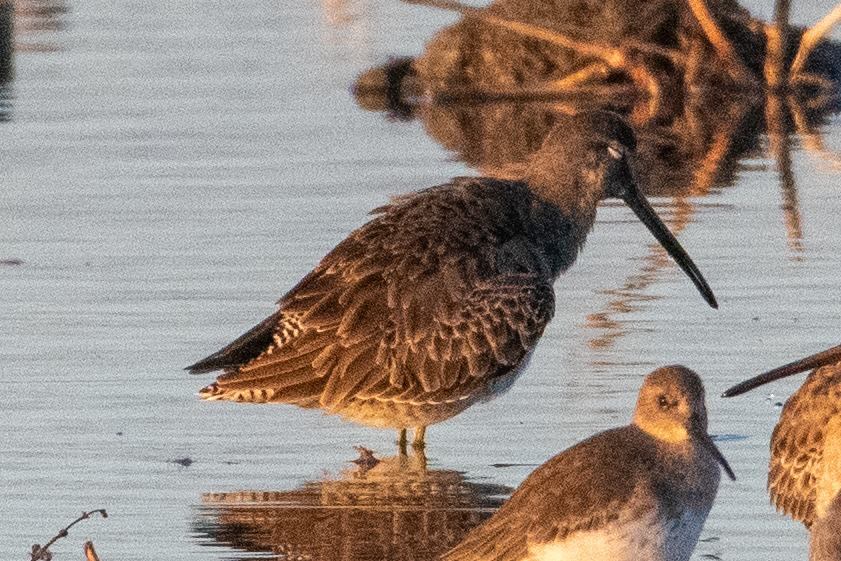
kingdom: Animalia
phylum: Chordata
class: Aves
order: Charadriiformes
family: Scolopacidae
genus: Limnodromus
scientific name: Limnodromus scolopaceus
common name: Long-billed dowitcher
